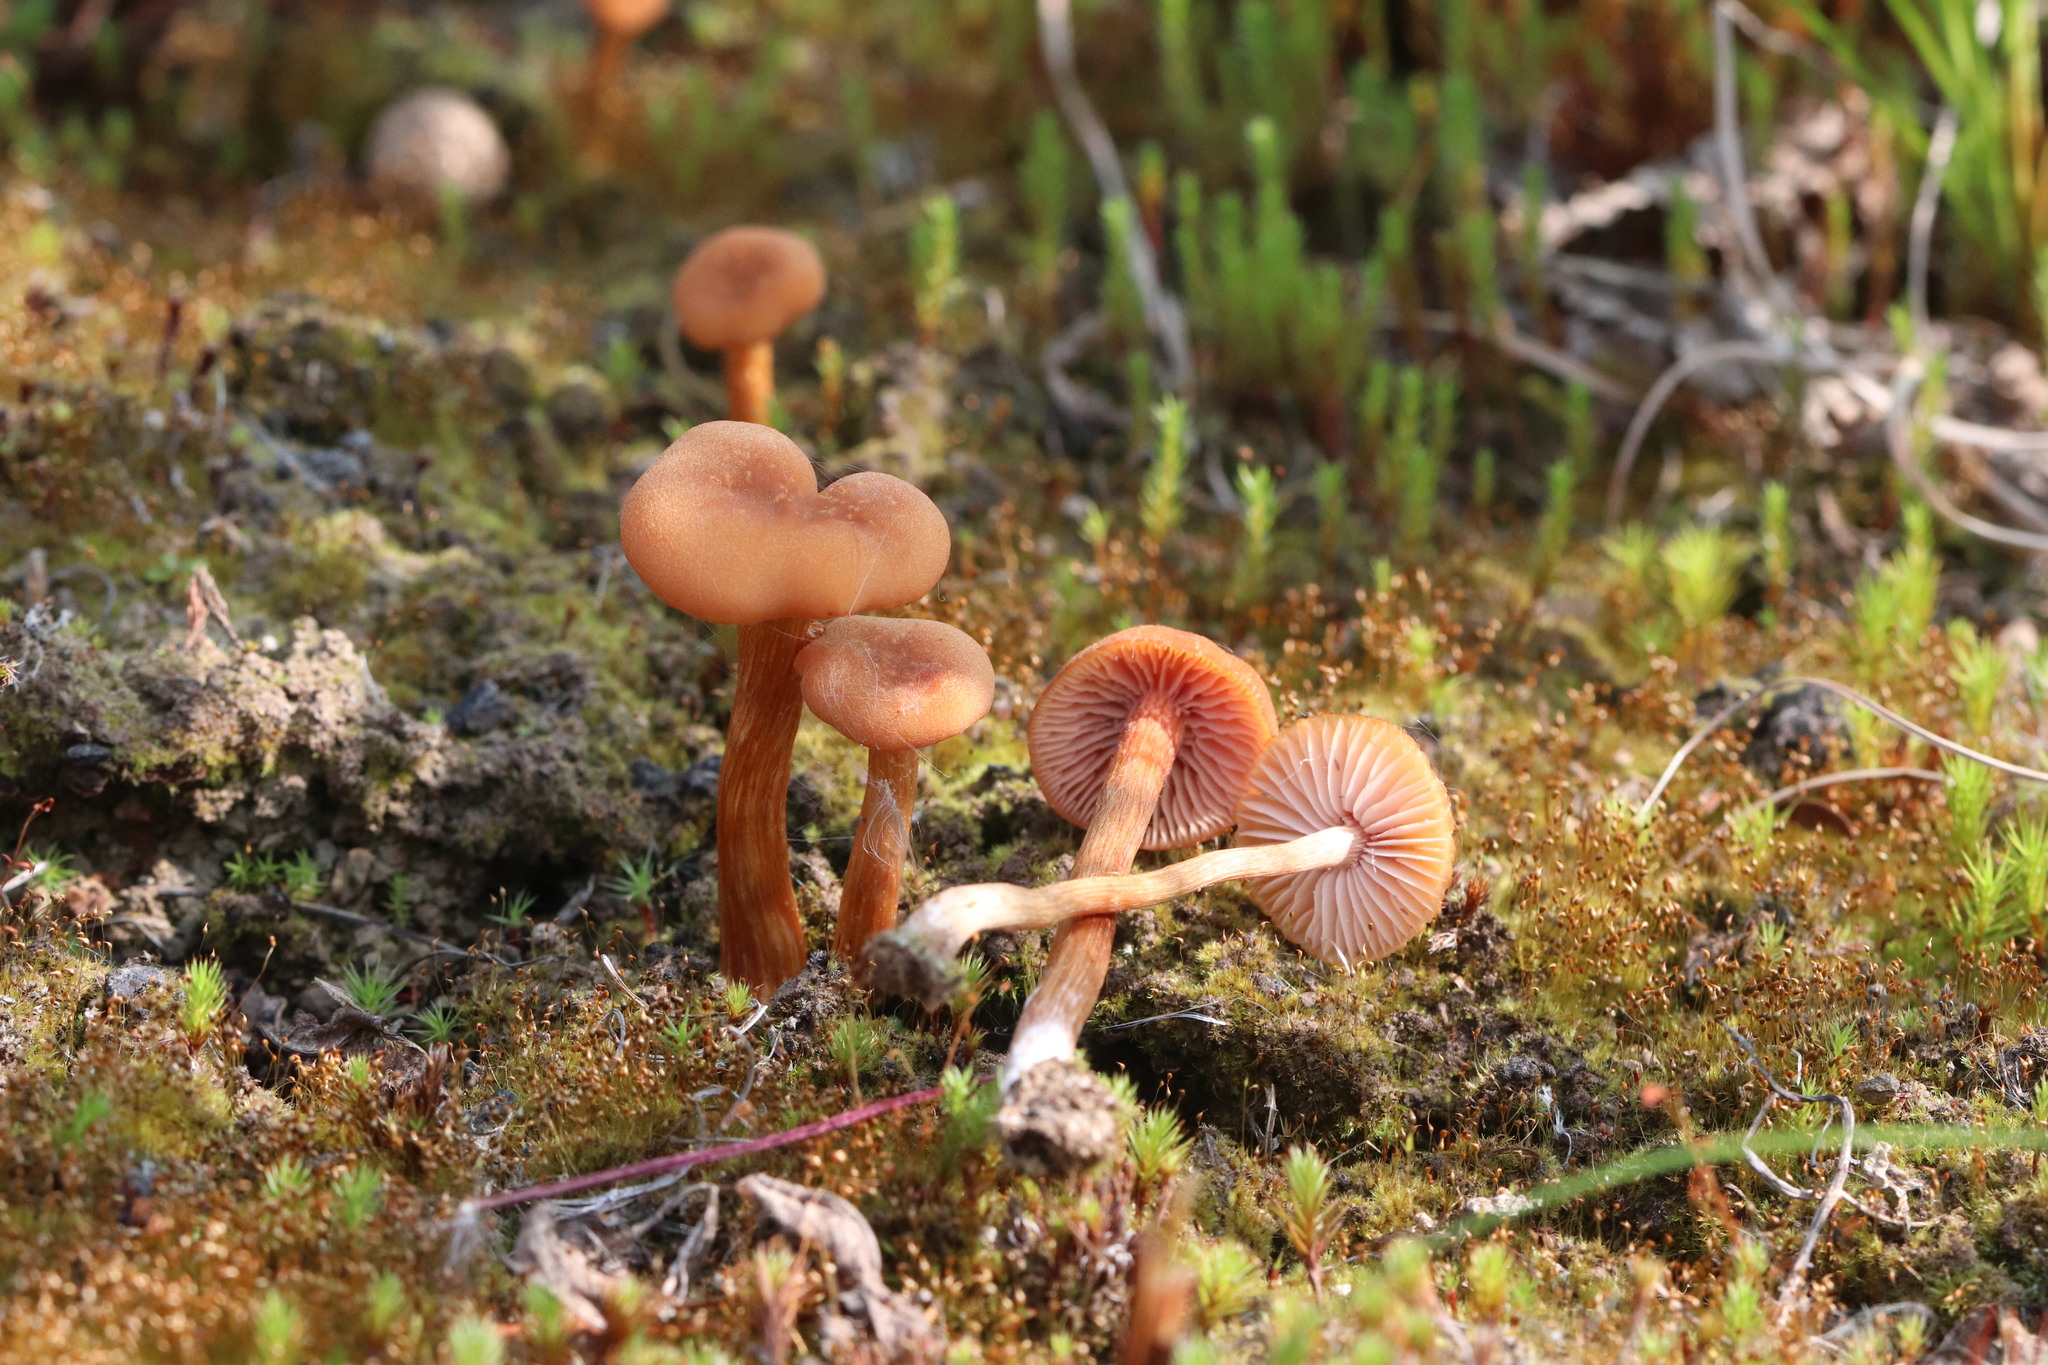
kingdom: Fungi
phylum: Basidiomycota
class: Agaricomycetes
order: Agaricales
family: Hydnangiaceae
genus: Laccaria
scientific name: Laccaria laccata
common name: Deceiver
